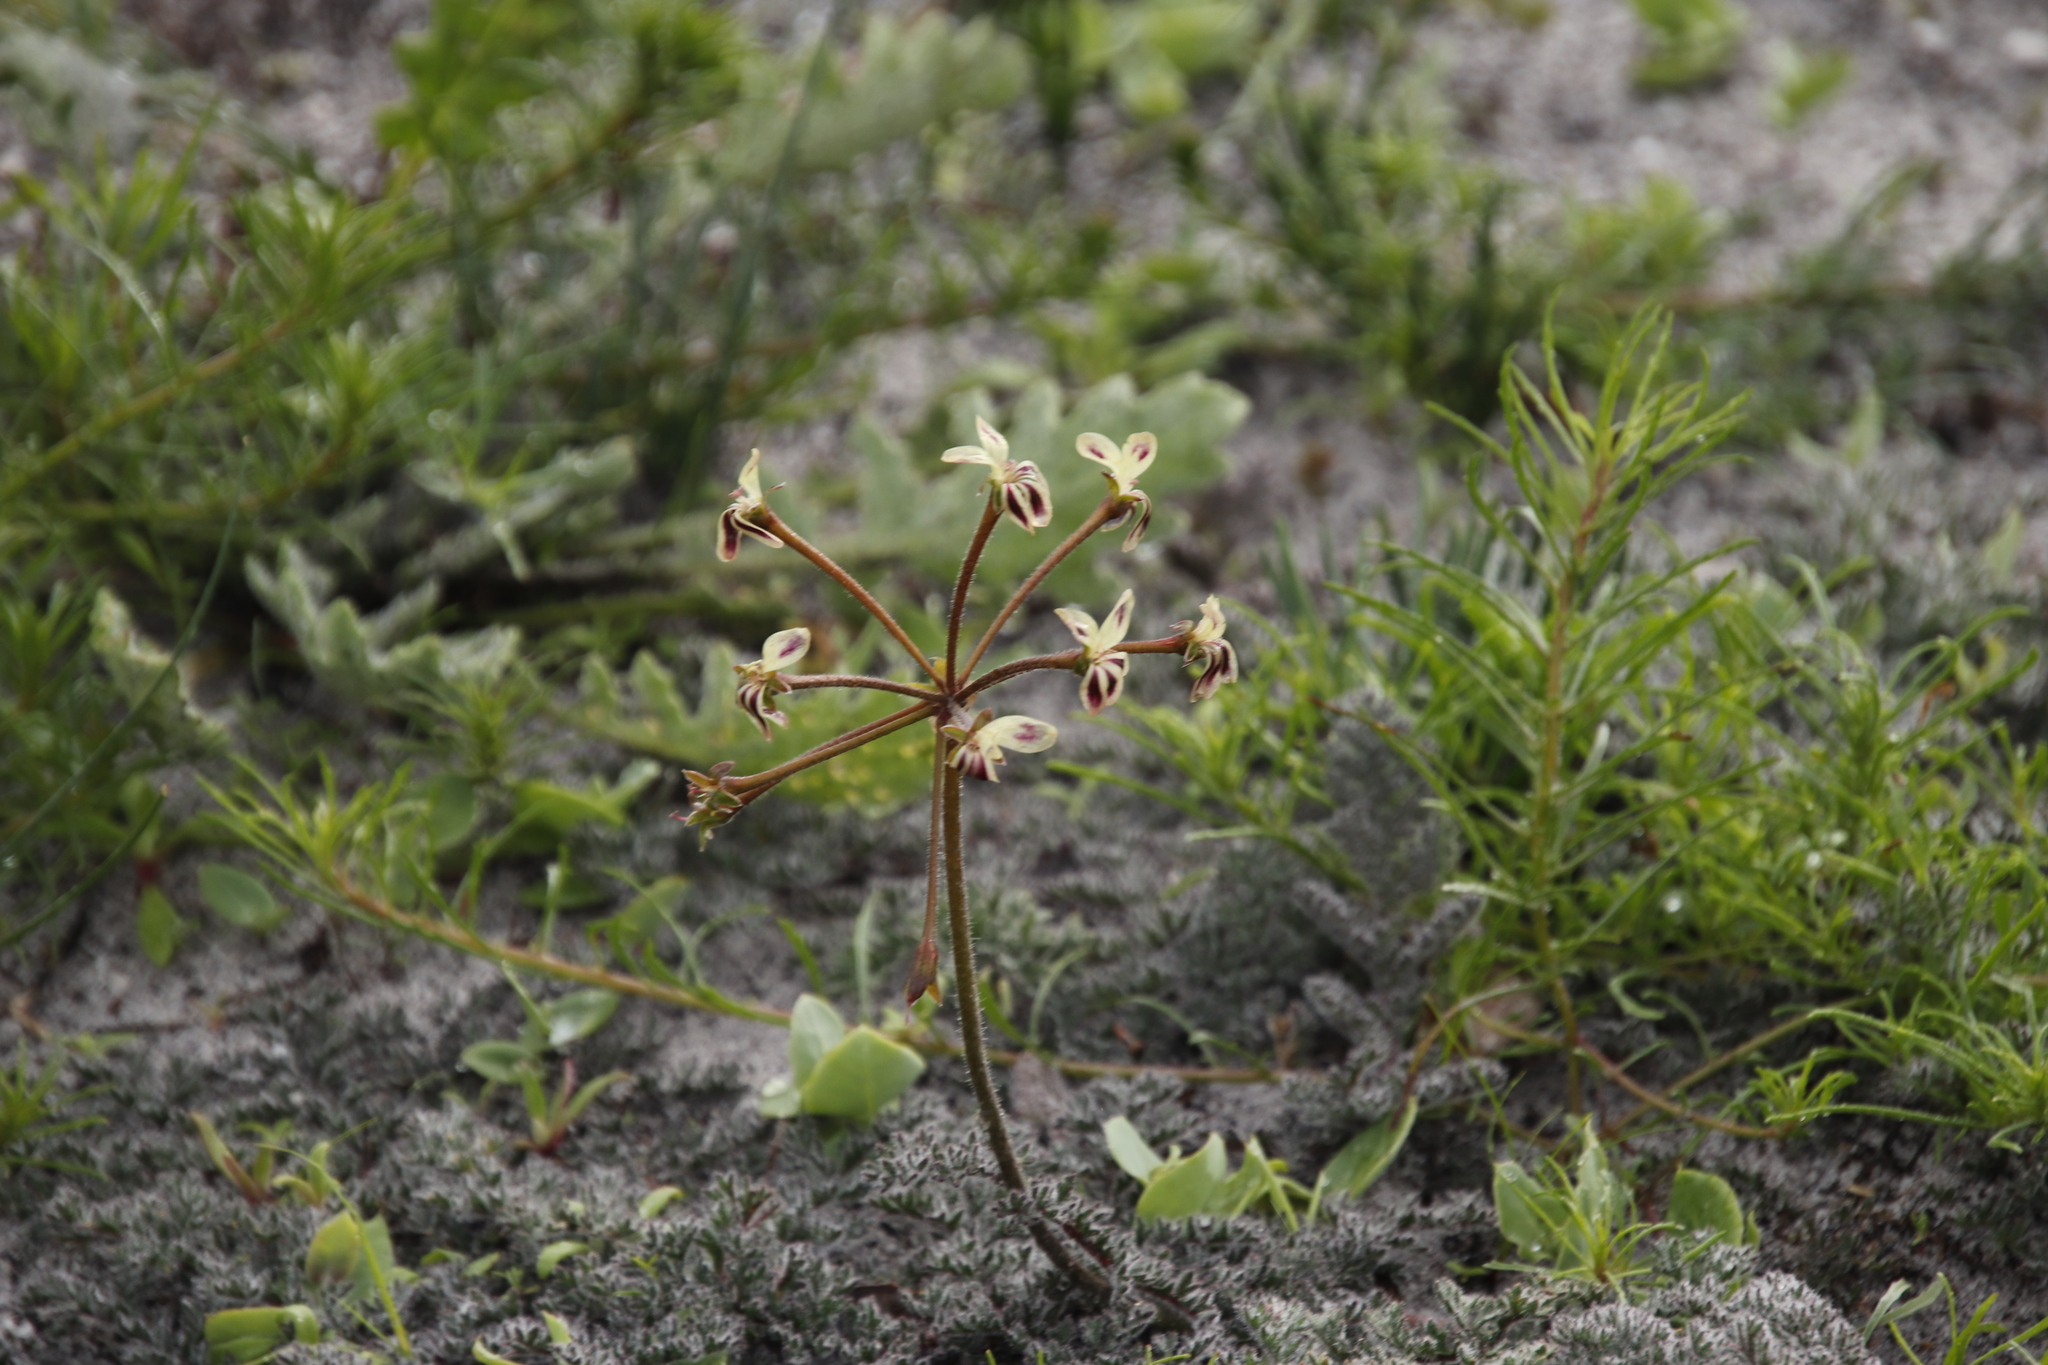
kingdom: Plantae
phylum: Tracheophyta
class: Magnoliopsida
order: Geraniales
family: Geraniaceae
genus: Pelargonium
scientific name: Pelargonium triste
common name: Night-scent pelargonium
